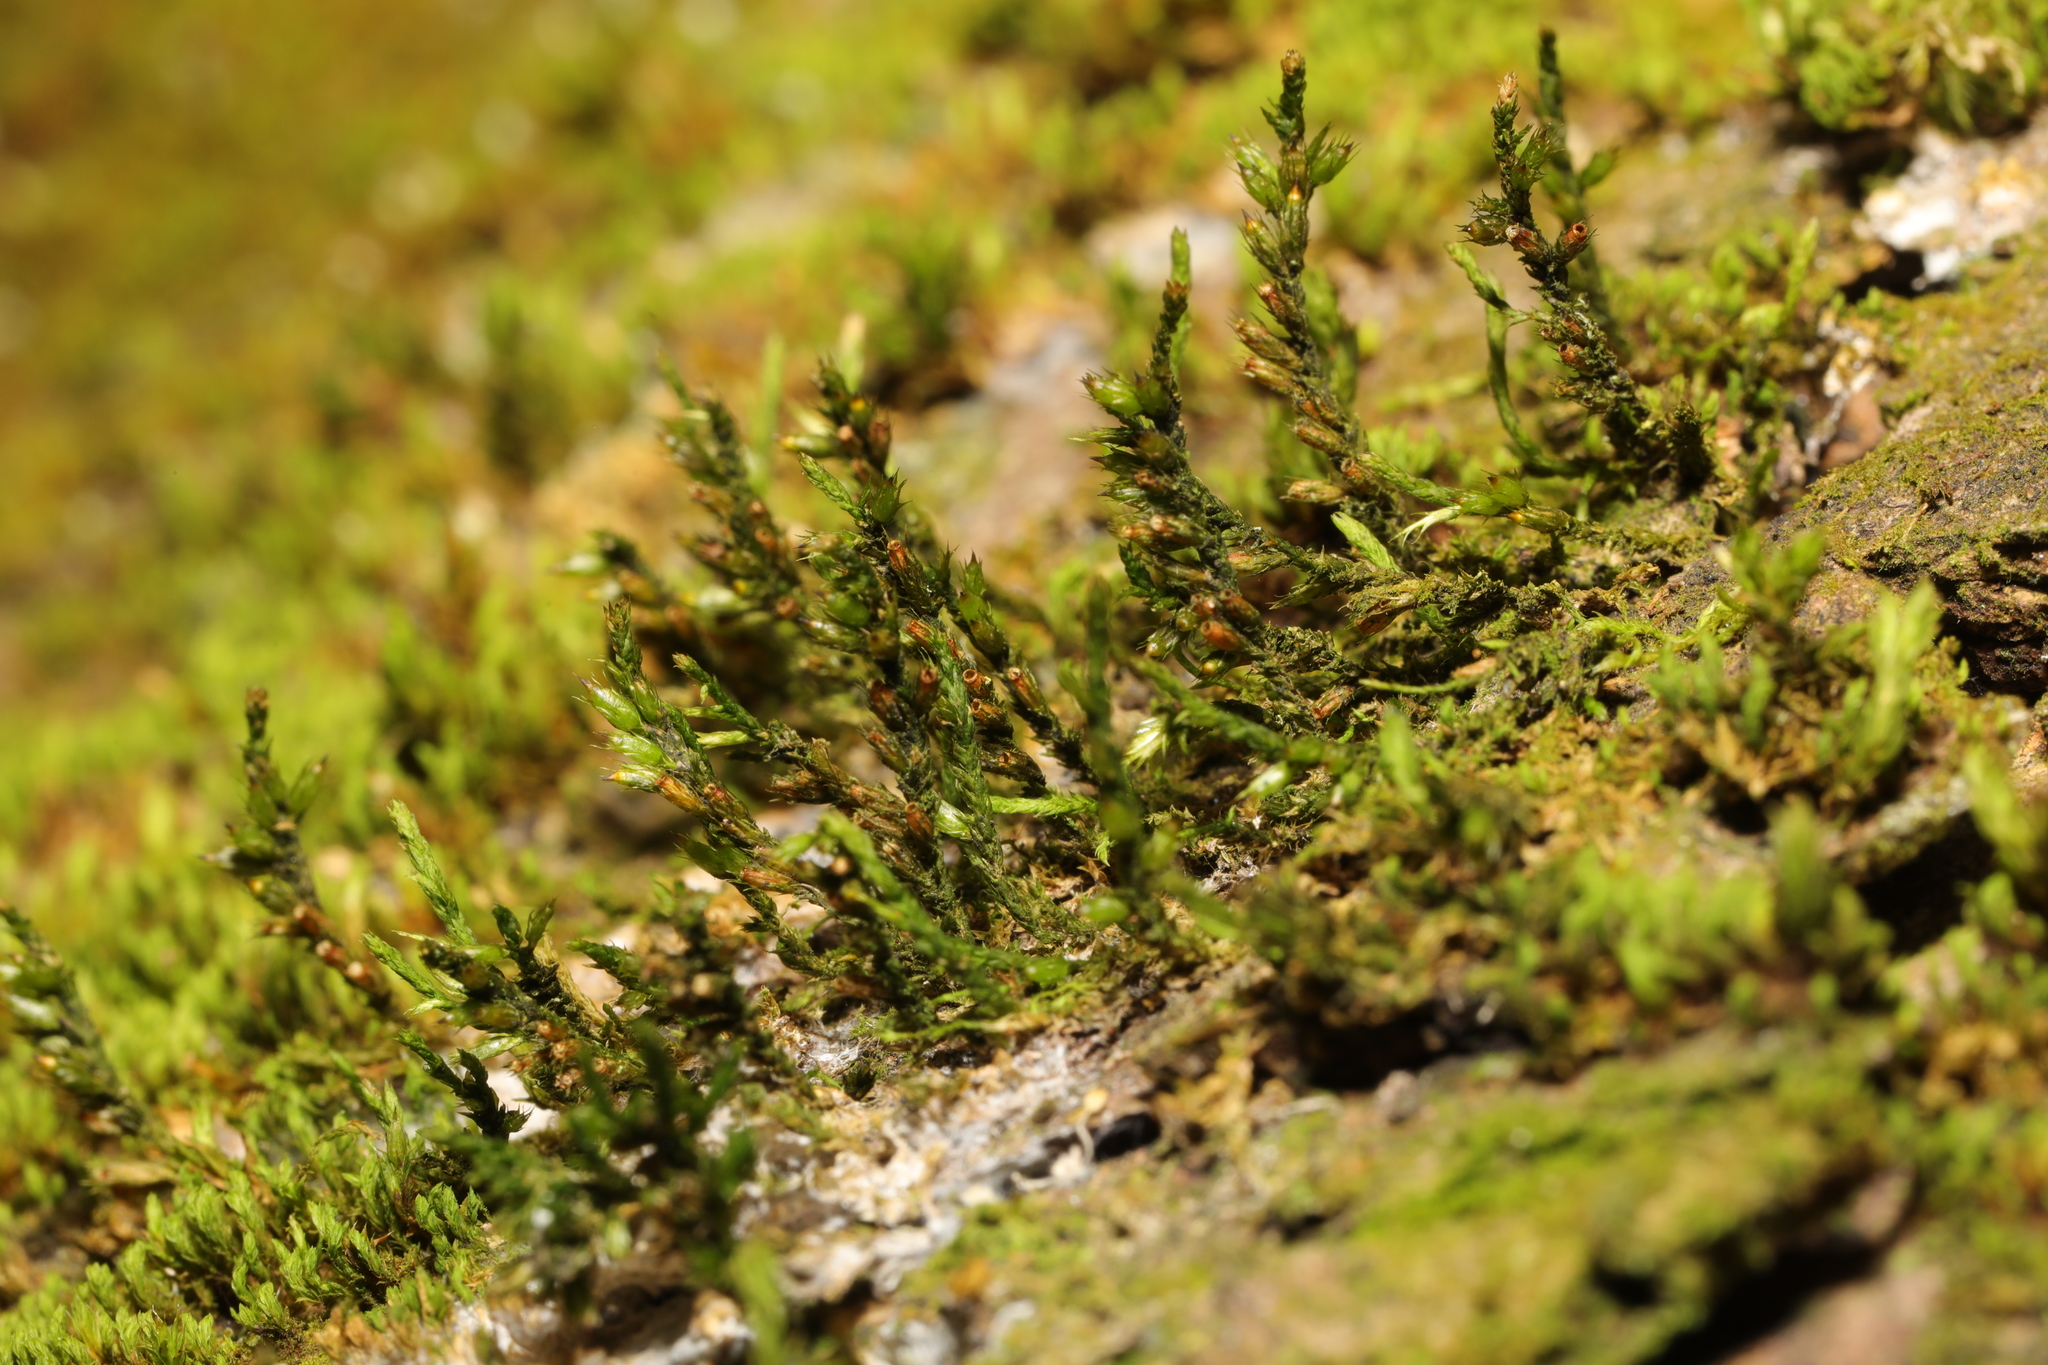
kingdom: Plantae
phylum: Bryophyta
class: Bryopsida
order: Hypnales
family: Cryphaeaceae
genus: Cryphaea
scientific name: Cryphaea heteromalla
